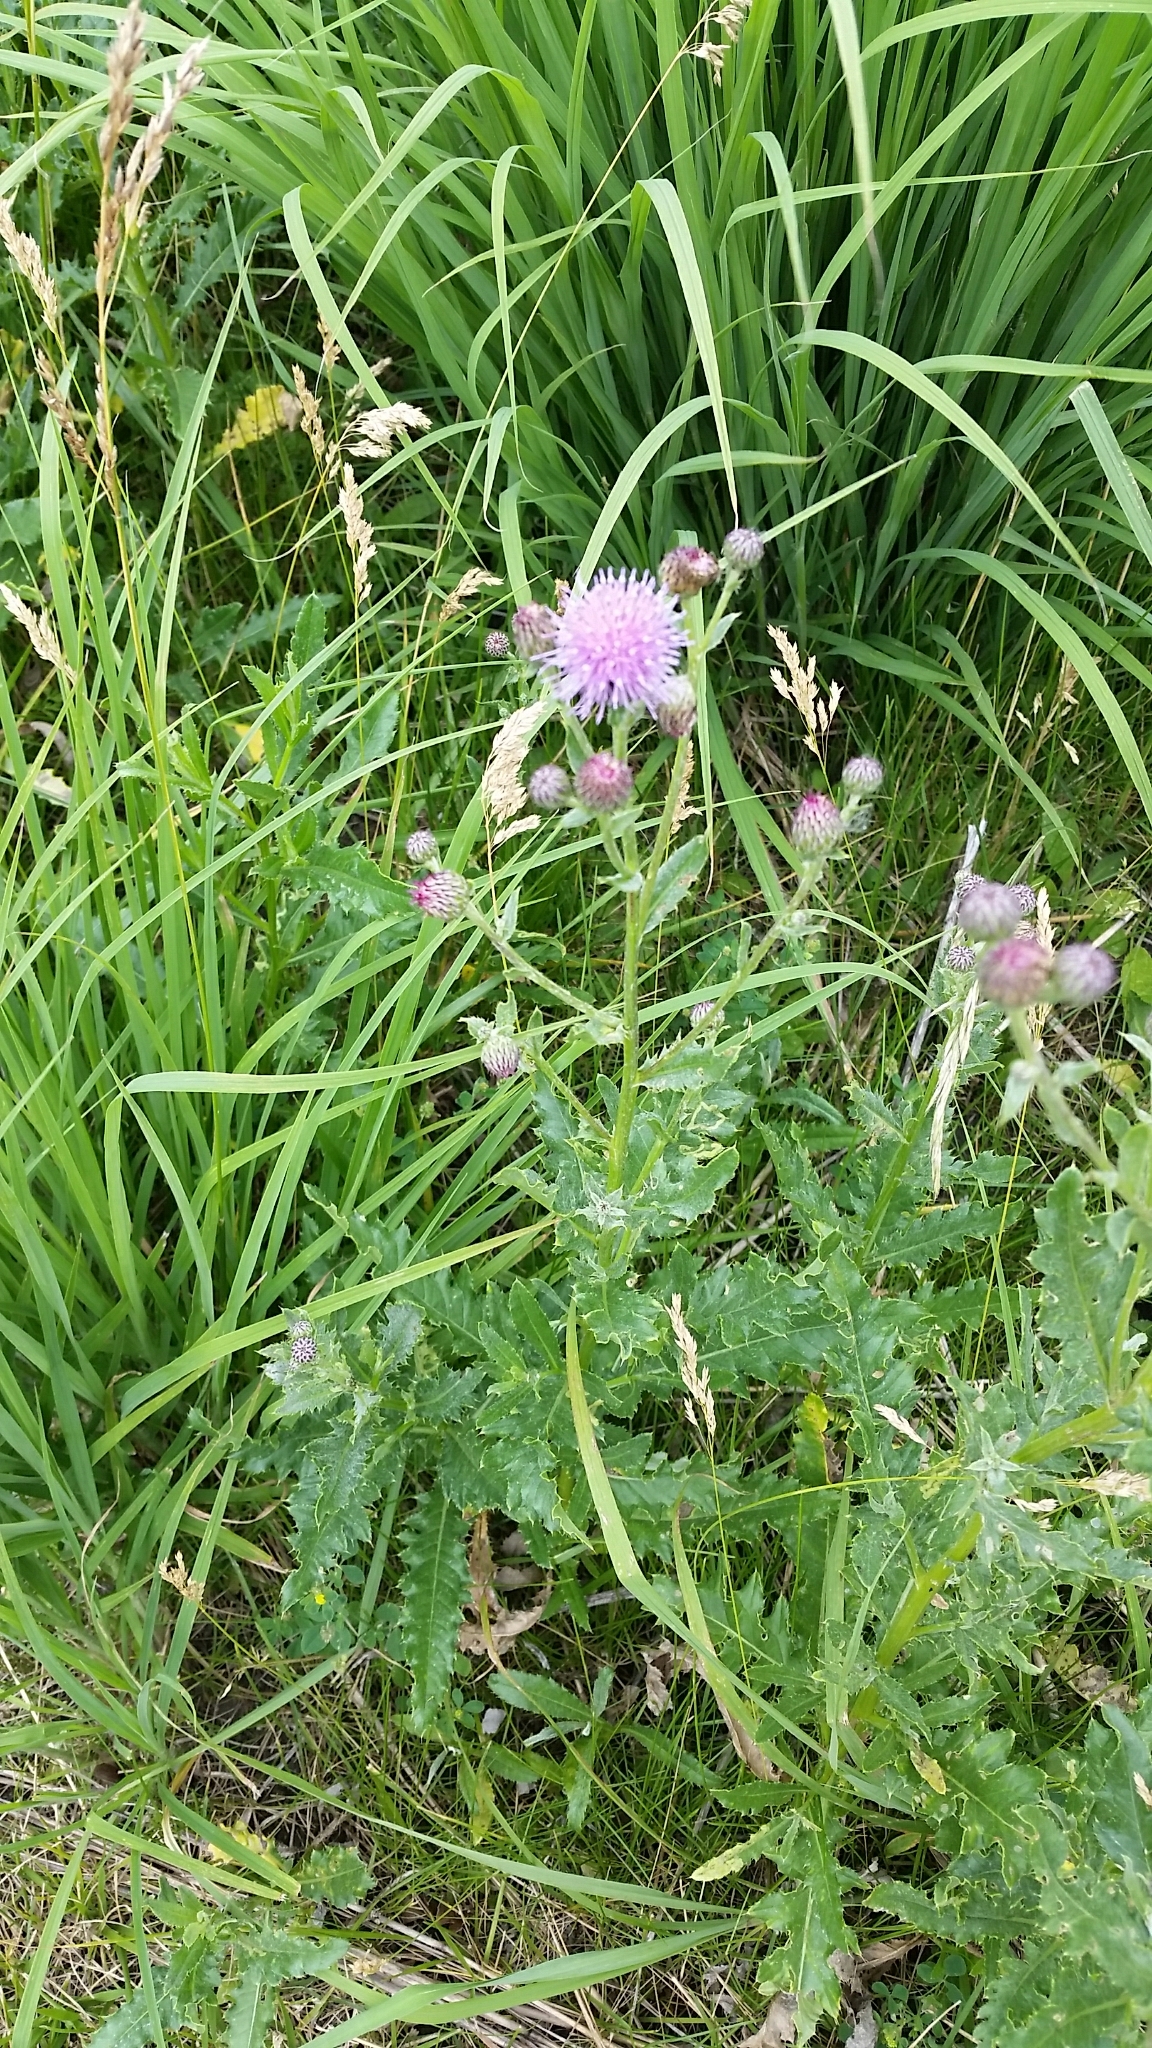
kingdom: Plantae
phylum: Tracheophyta
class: Magnoliopsida
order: Asterales
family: Asteraceae
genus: Cirsium
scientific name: Cirsium arvense
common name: Creeping thistle
